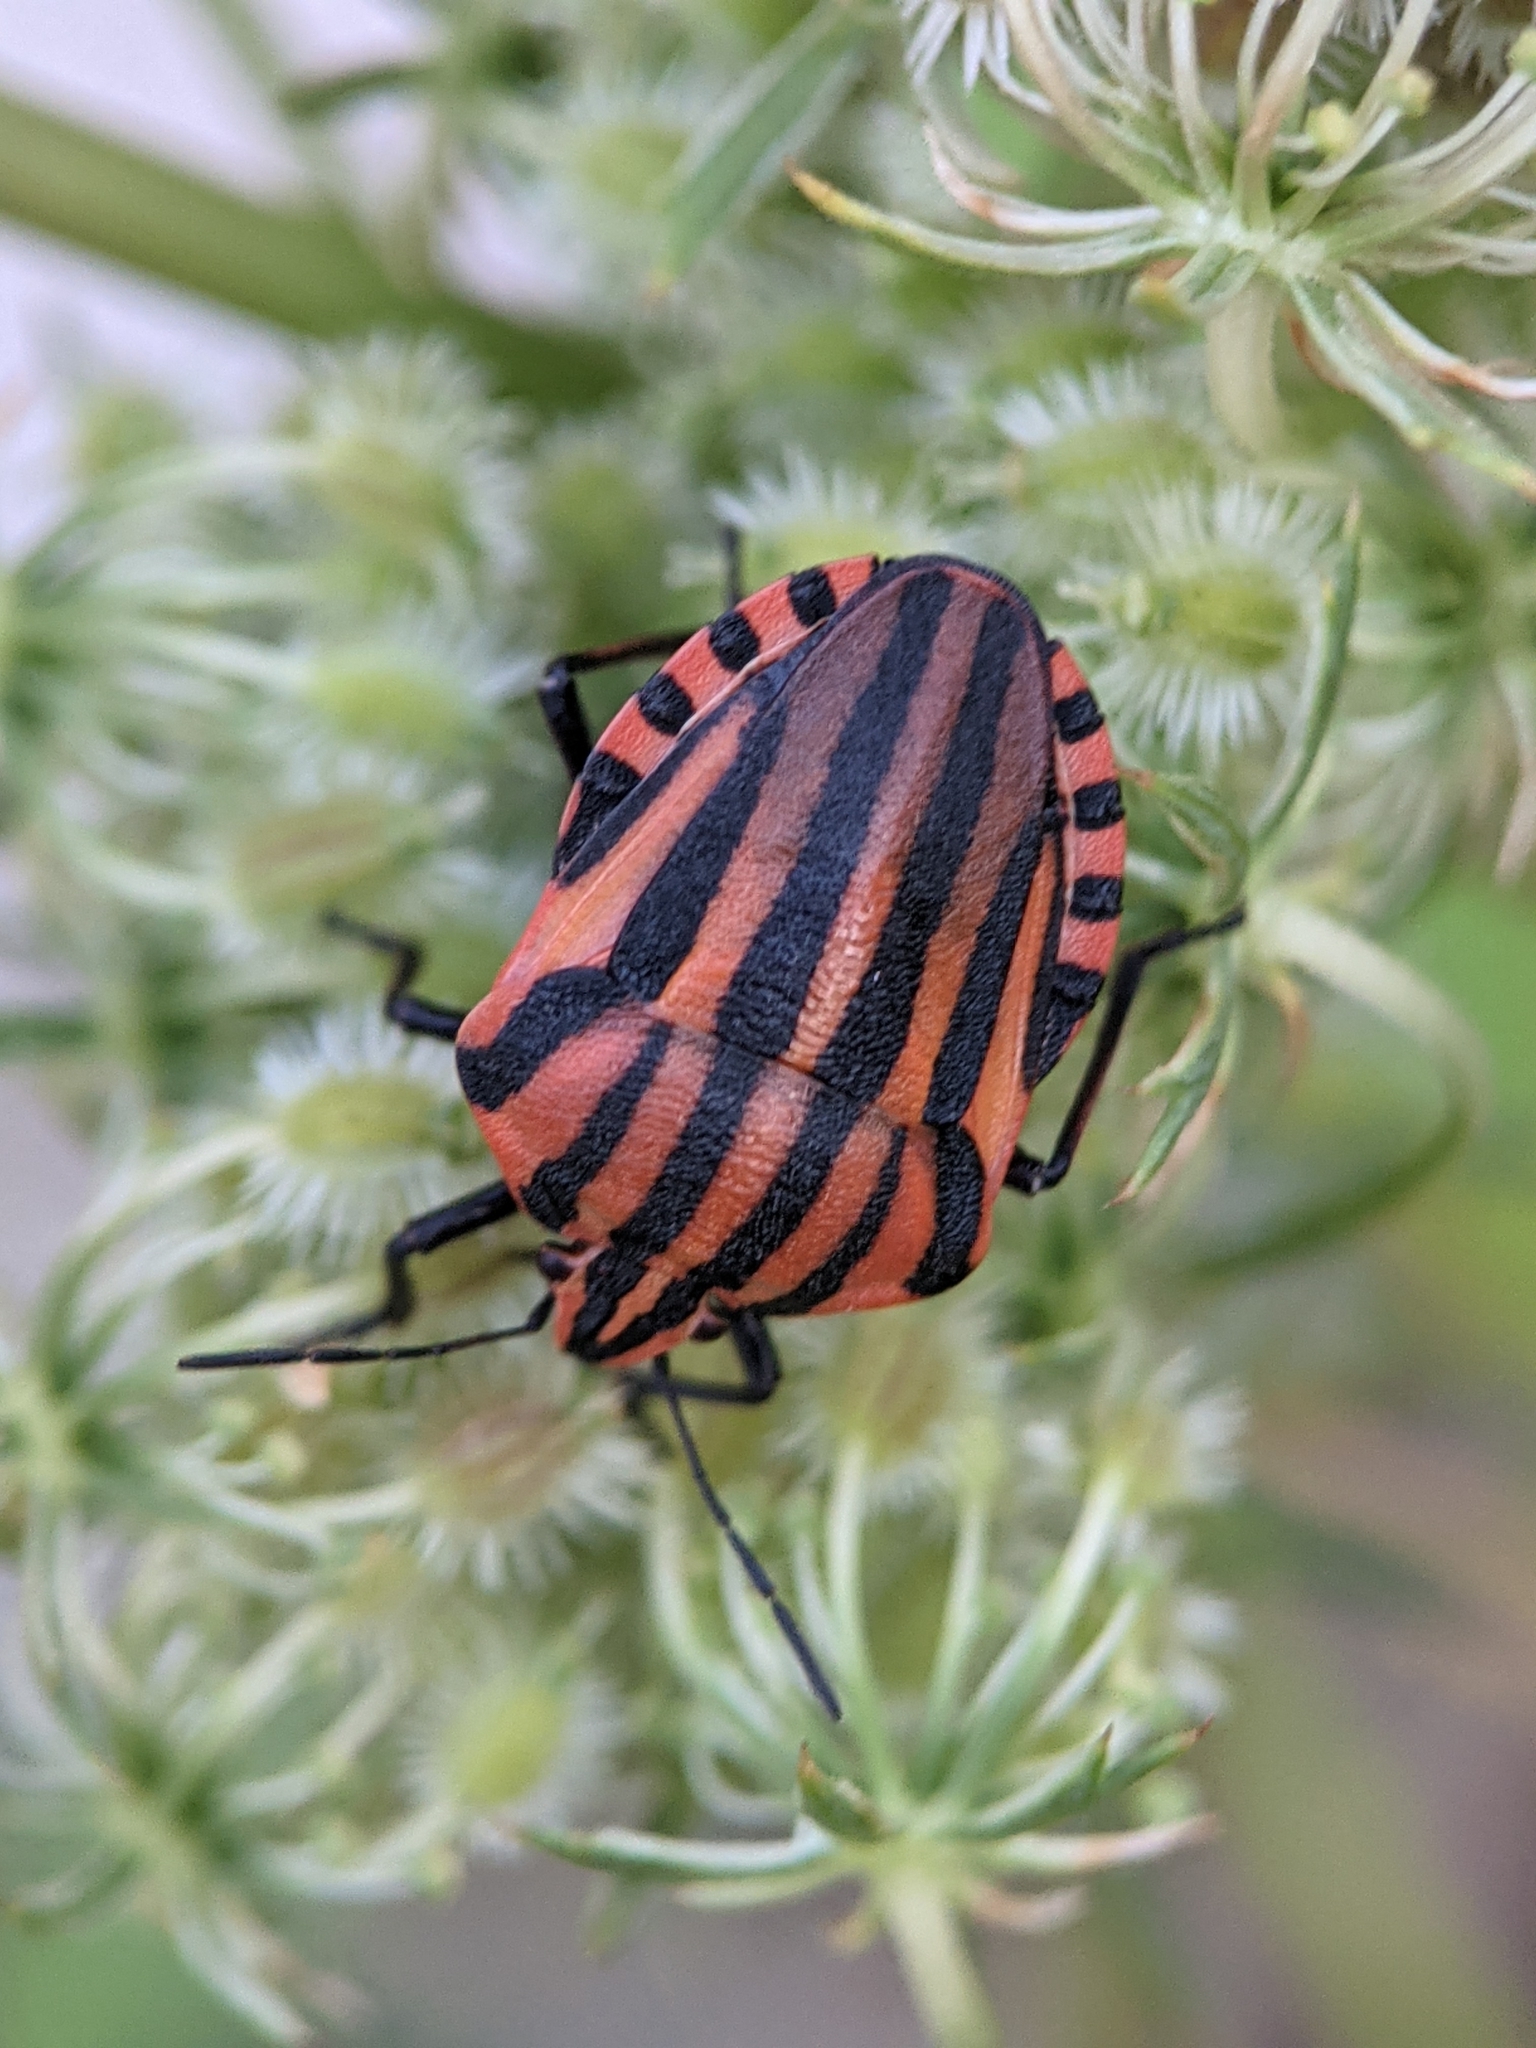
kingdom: Animalia
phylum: Arthropoda
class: Insecta
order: Hemiptera
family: Pentatomidae
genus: Graphosoma
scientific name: Graphosoma italicum
